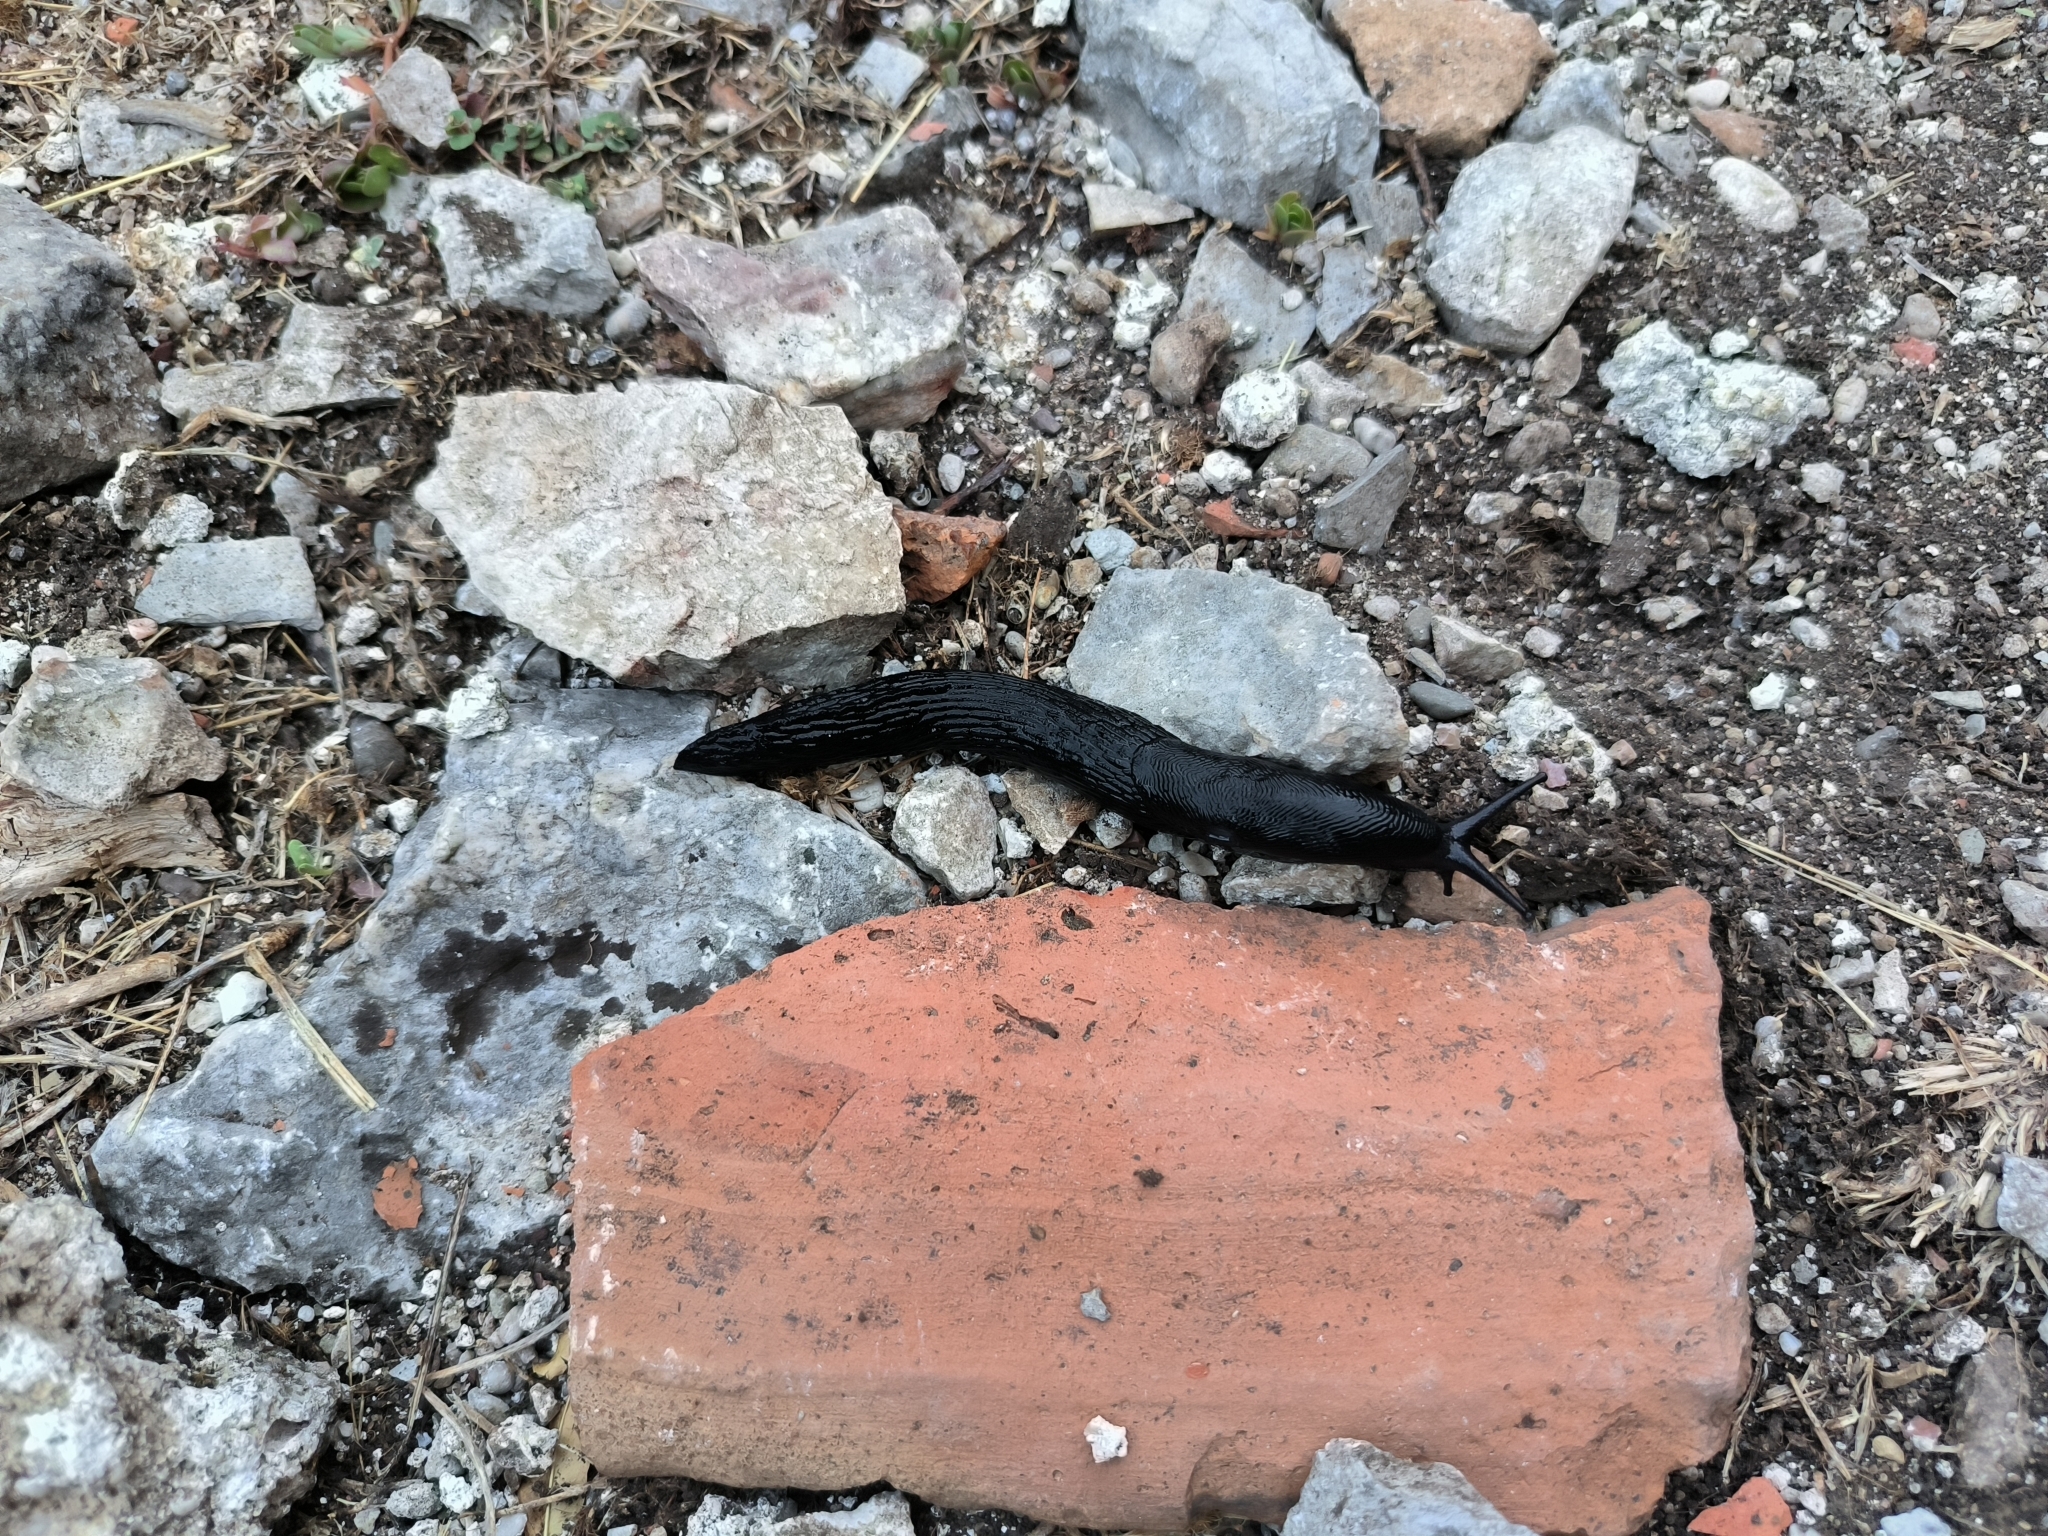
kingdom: Animalia
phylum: Mollusca
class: Gastropoda
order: Stylommatophora
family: Limacidae
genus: Limax
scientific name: Limax cinereoniger
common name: Ash-black slug
